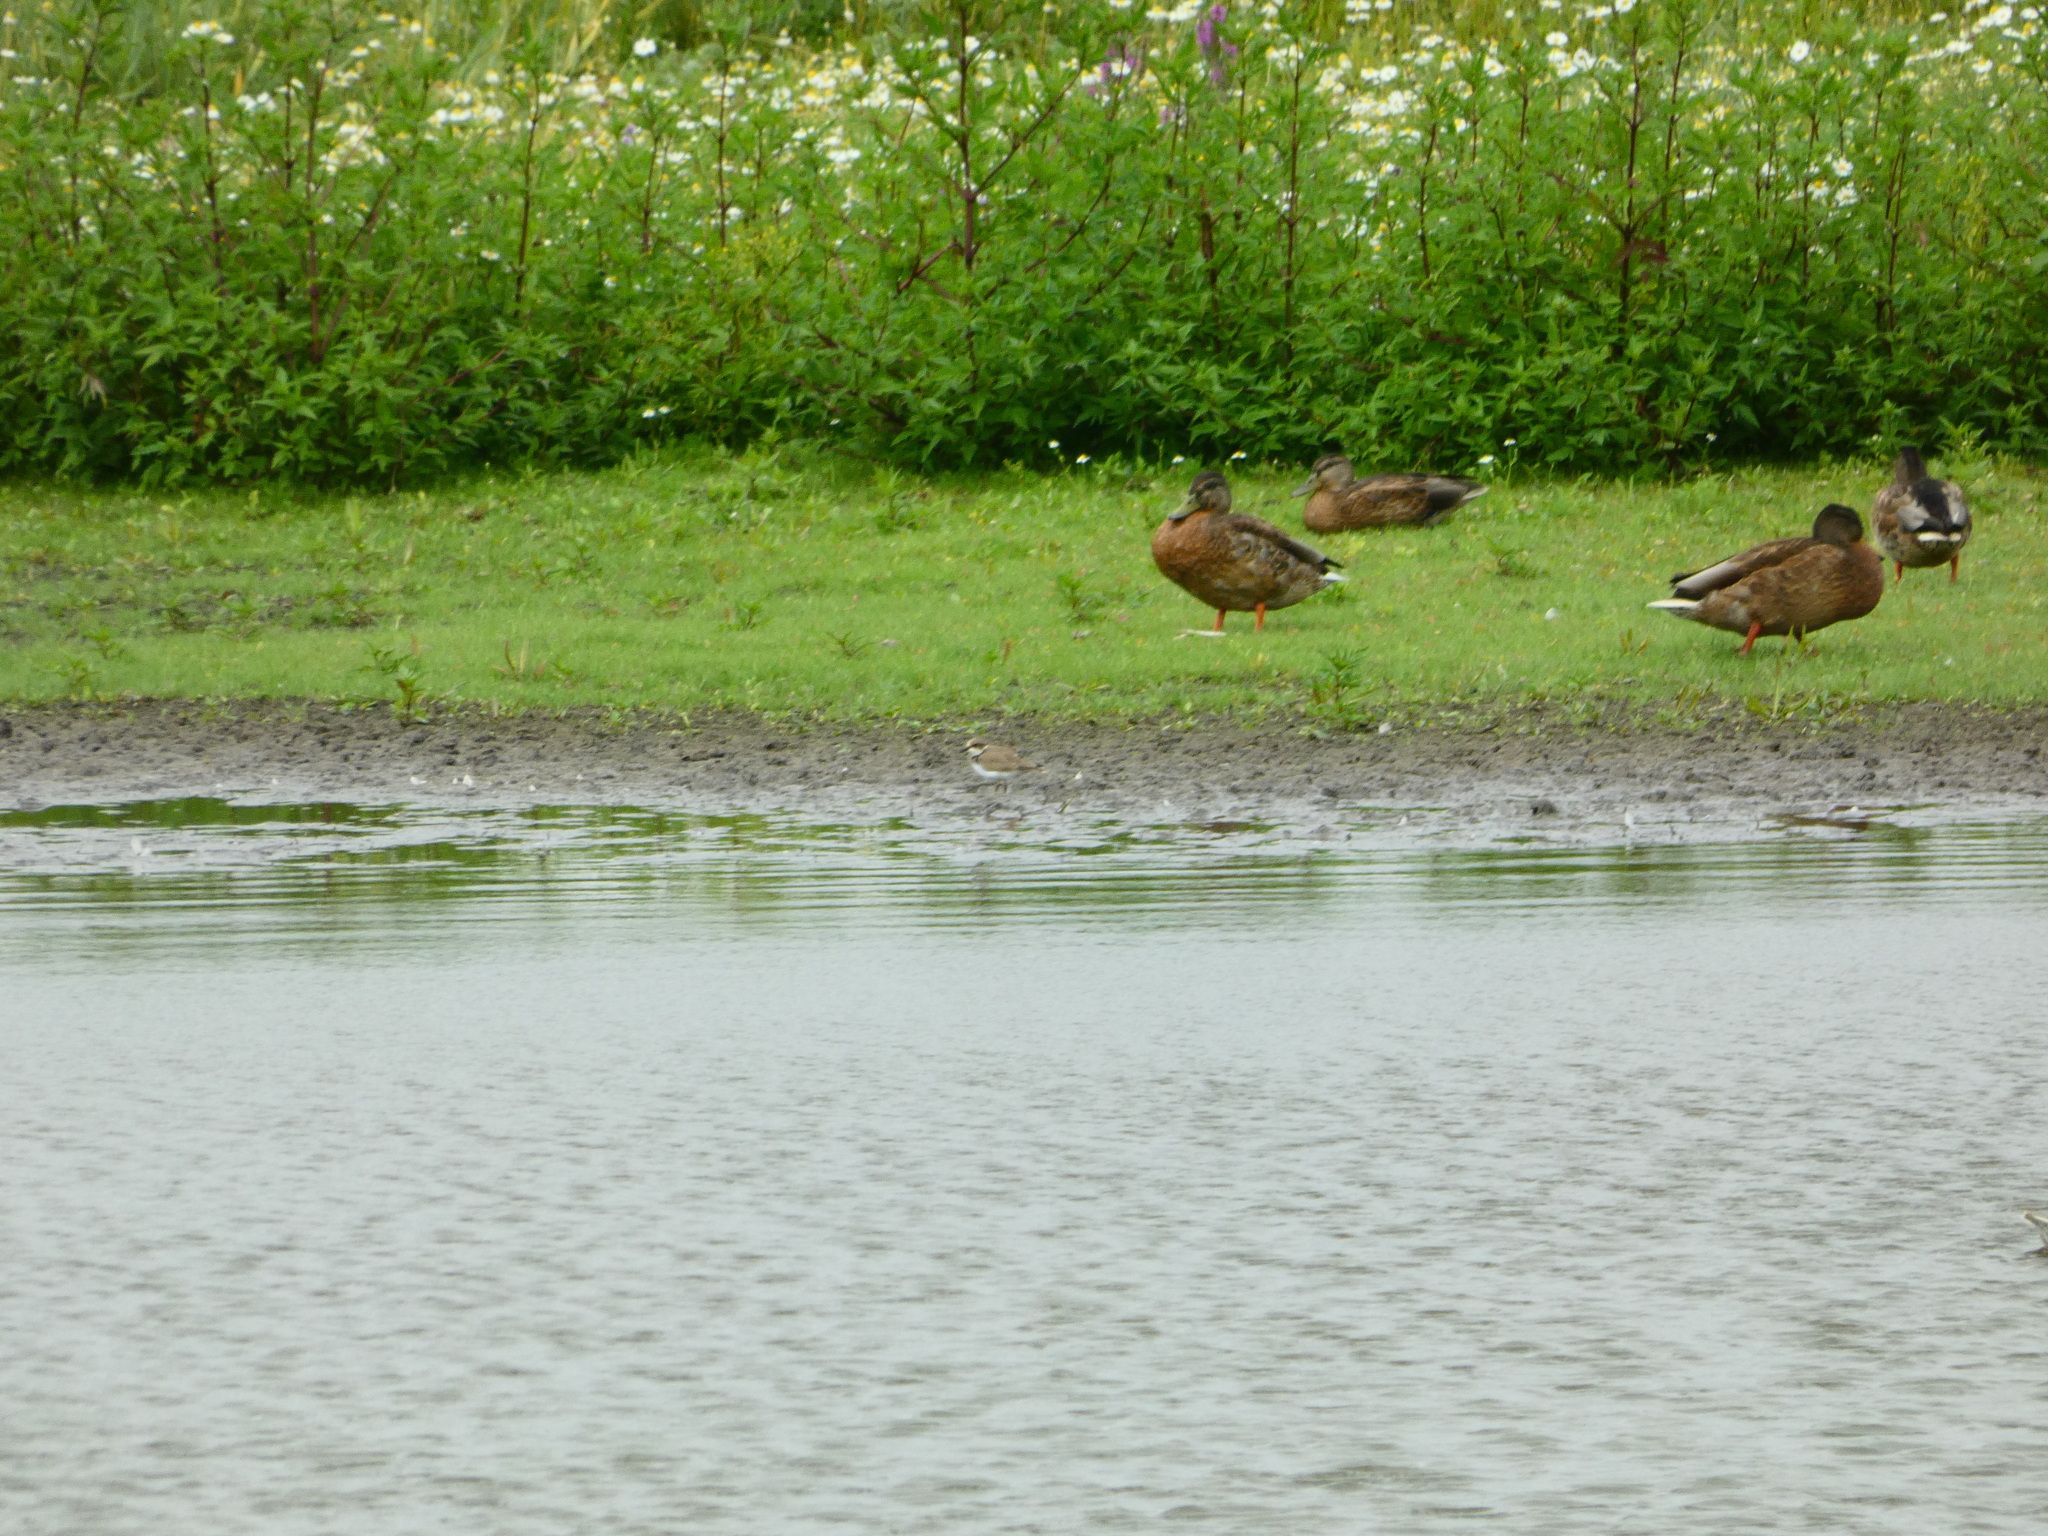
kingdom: Animalia
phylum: Chordata
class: Aves
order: Charadriiformes
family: Charadriidae
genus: Charadrius
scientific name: Charadrius dubius
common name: Little ringed plover
